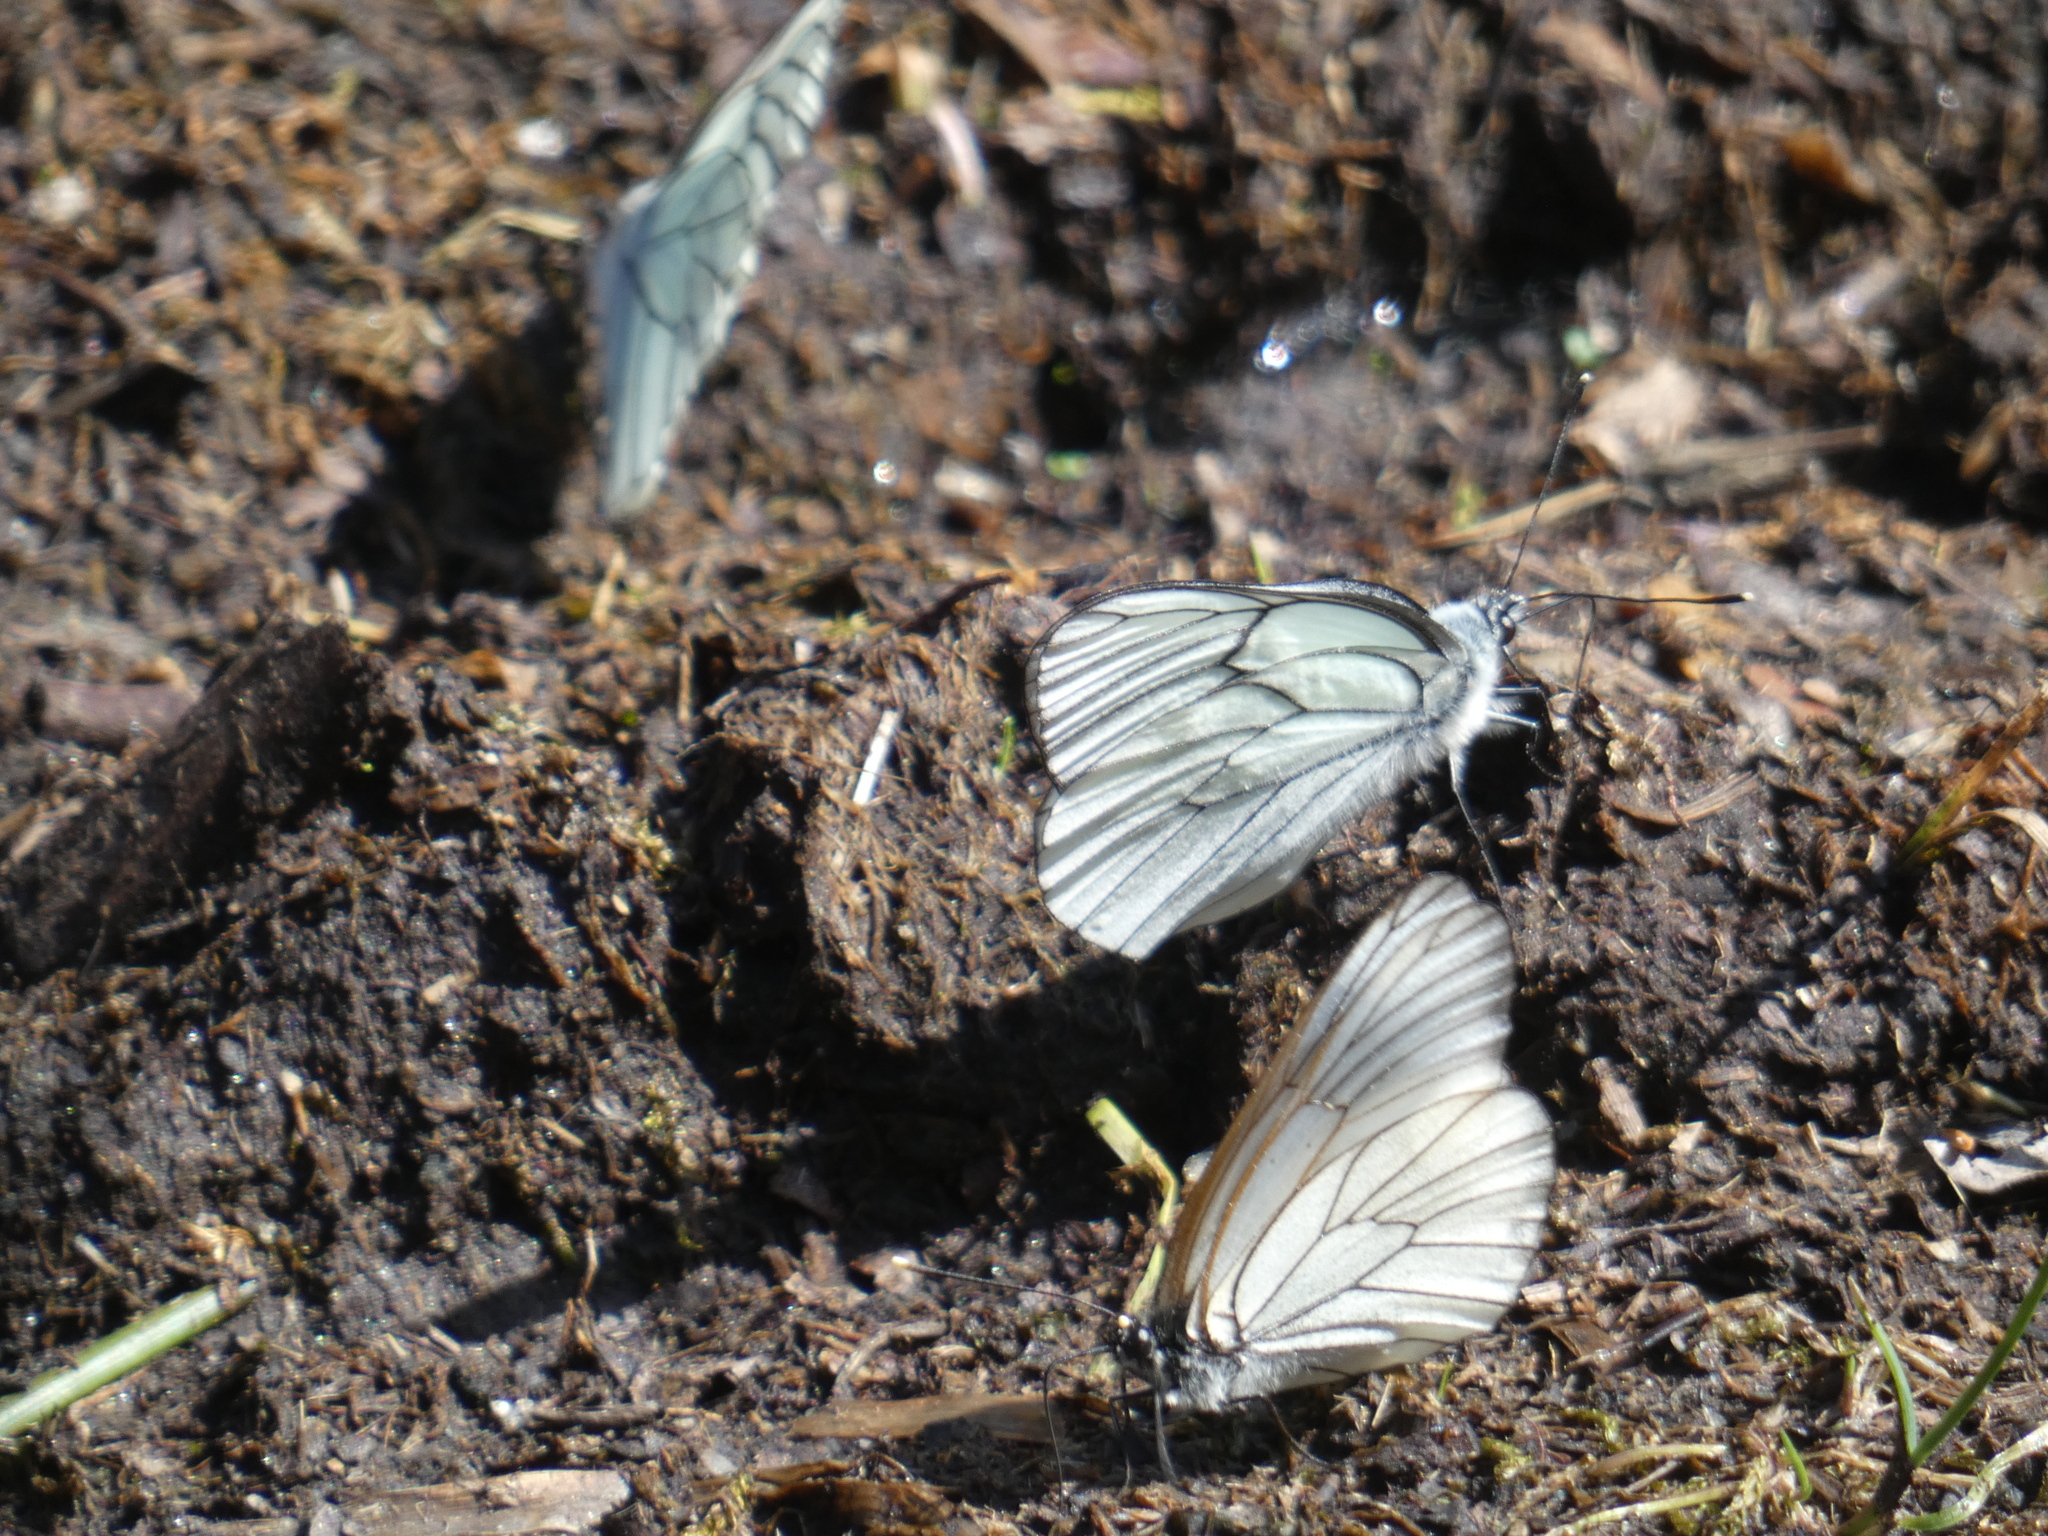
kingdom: Animalia
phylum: Arthropoda
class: Insecta
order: Lepidoptera
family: Pieridae
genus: Aporia
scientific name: Aporia crataegi
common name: Black-veined white
